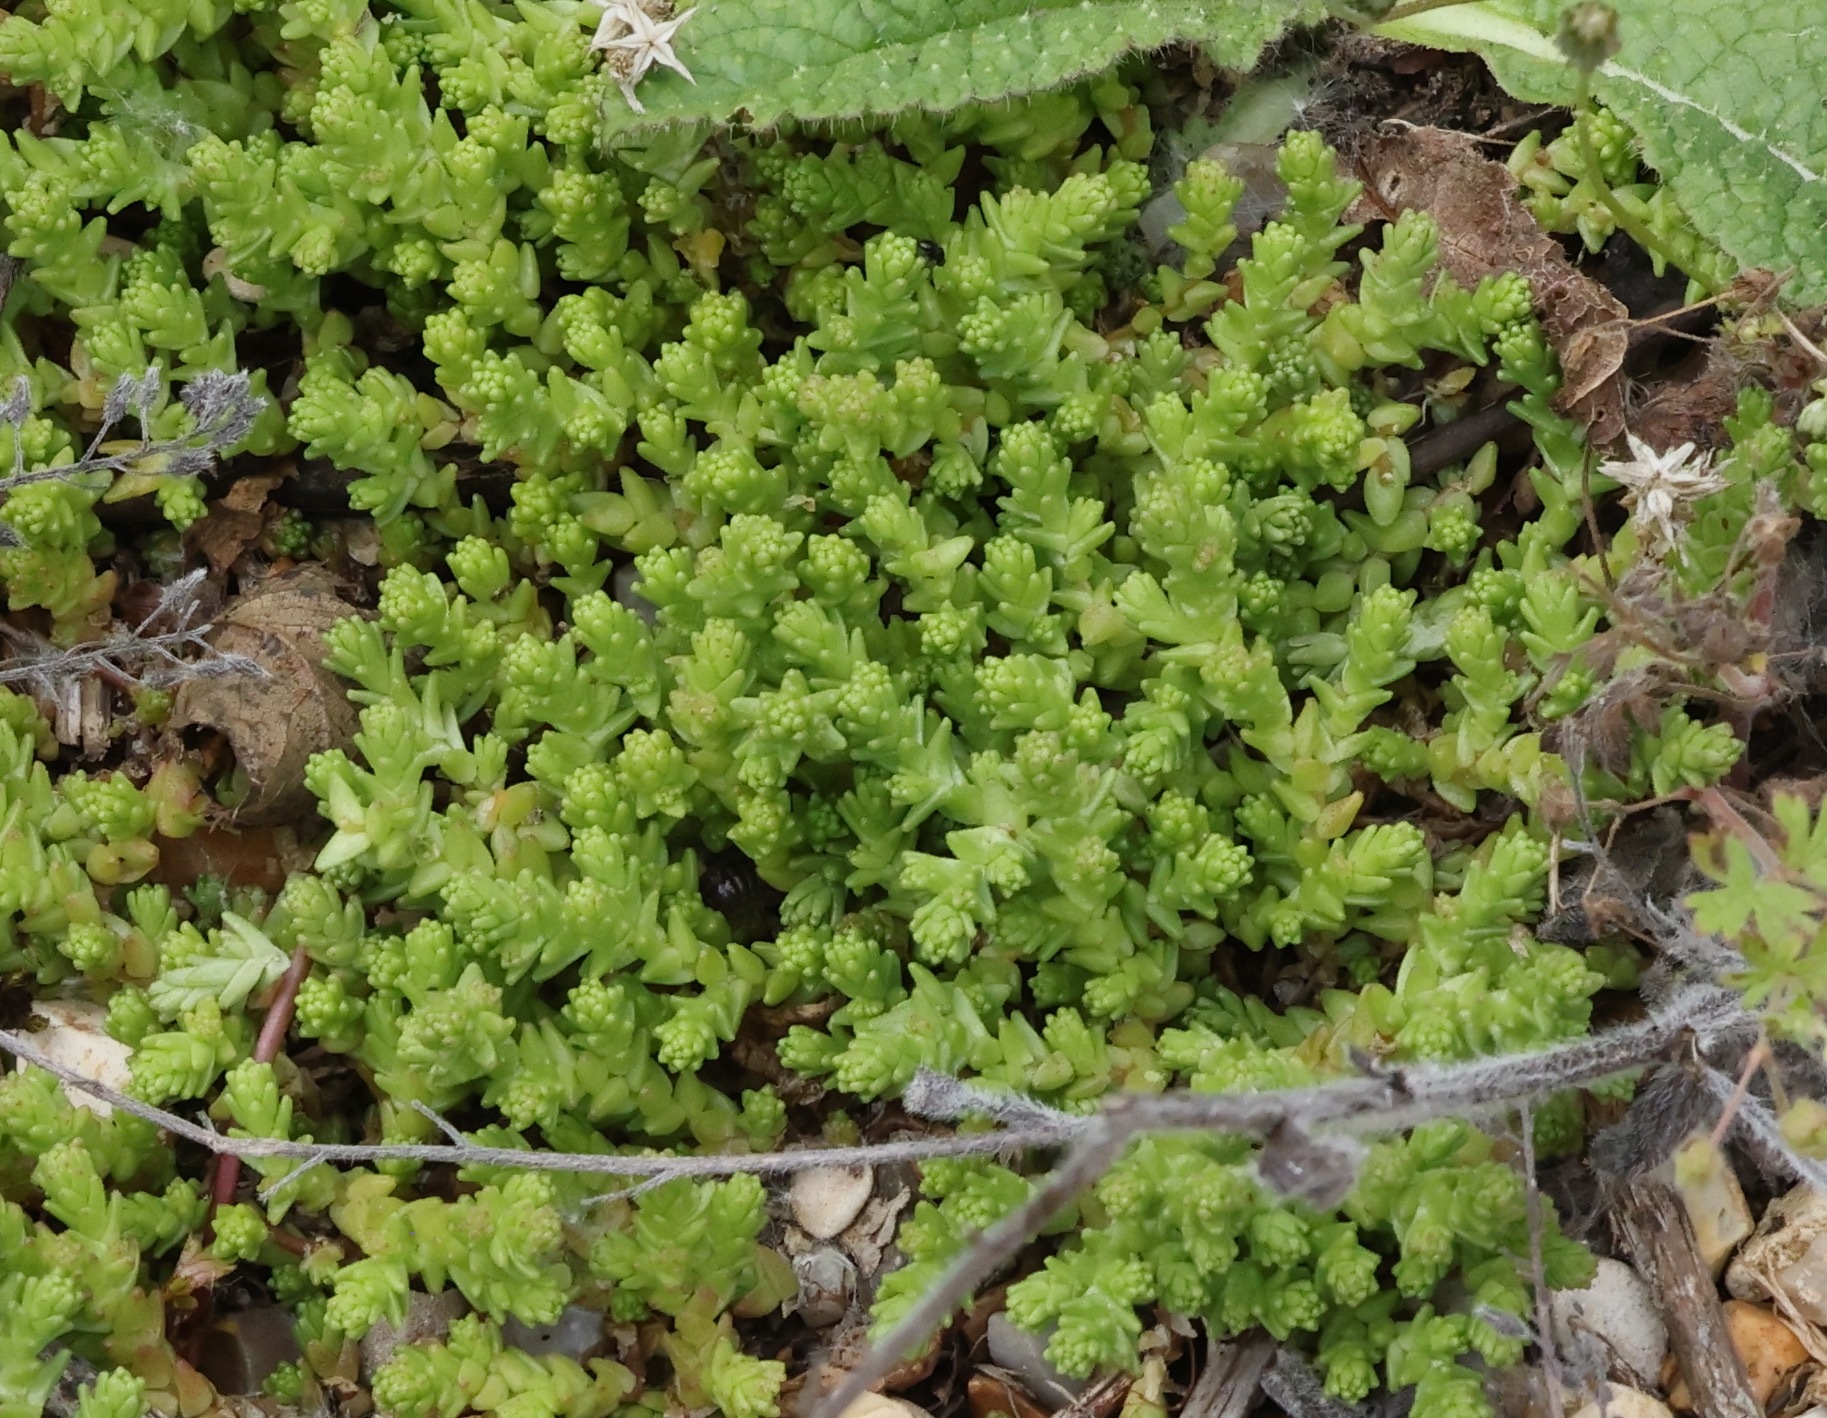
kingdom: Plantae
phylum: Tracheophyta
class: Magnoliopsida
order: Saxifragales
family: Crassulaceae
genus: Sedum
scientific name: Sedum acre
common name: Biting stonecrop
